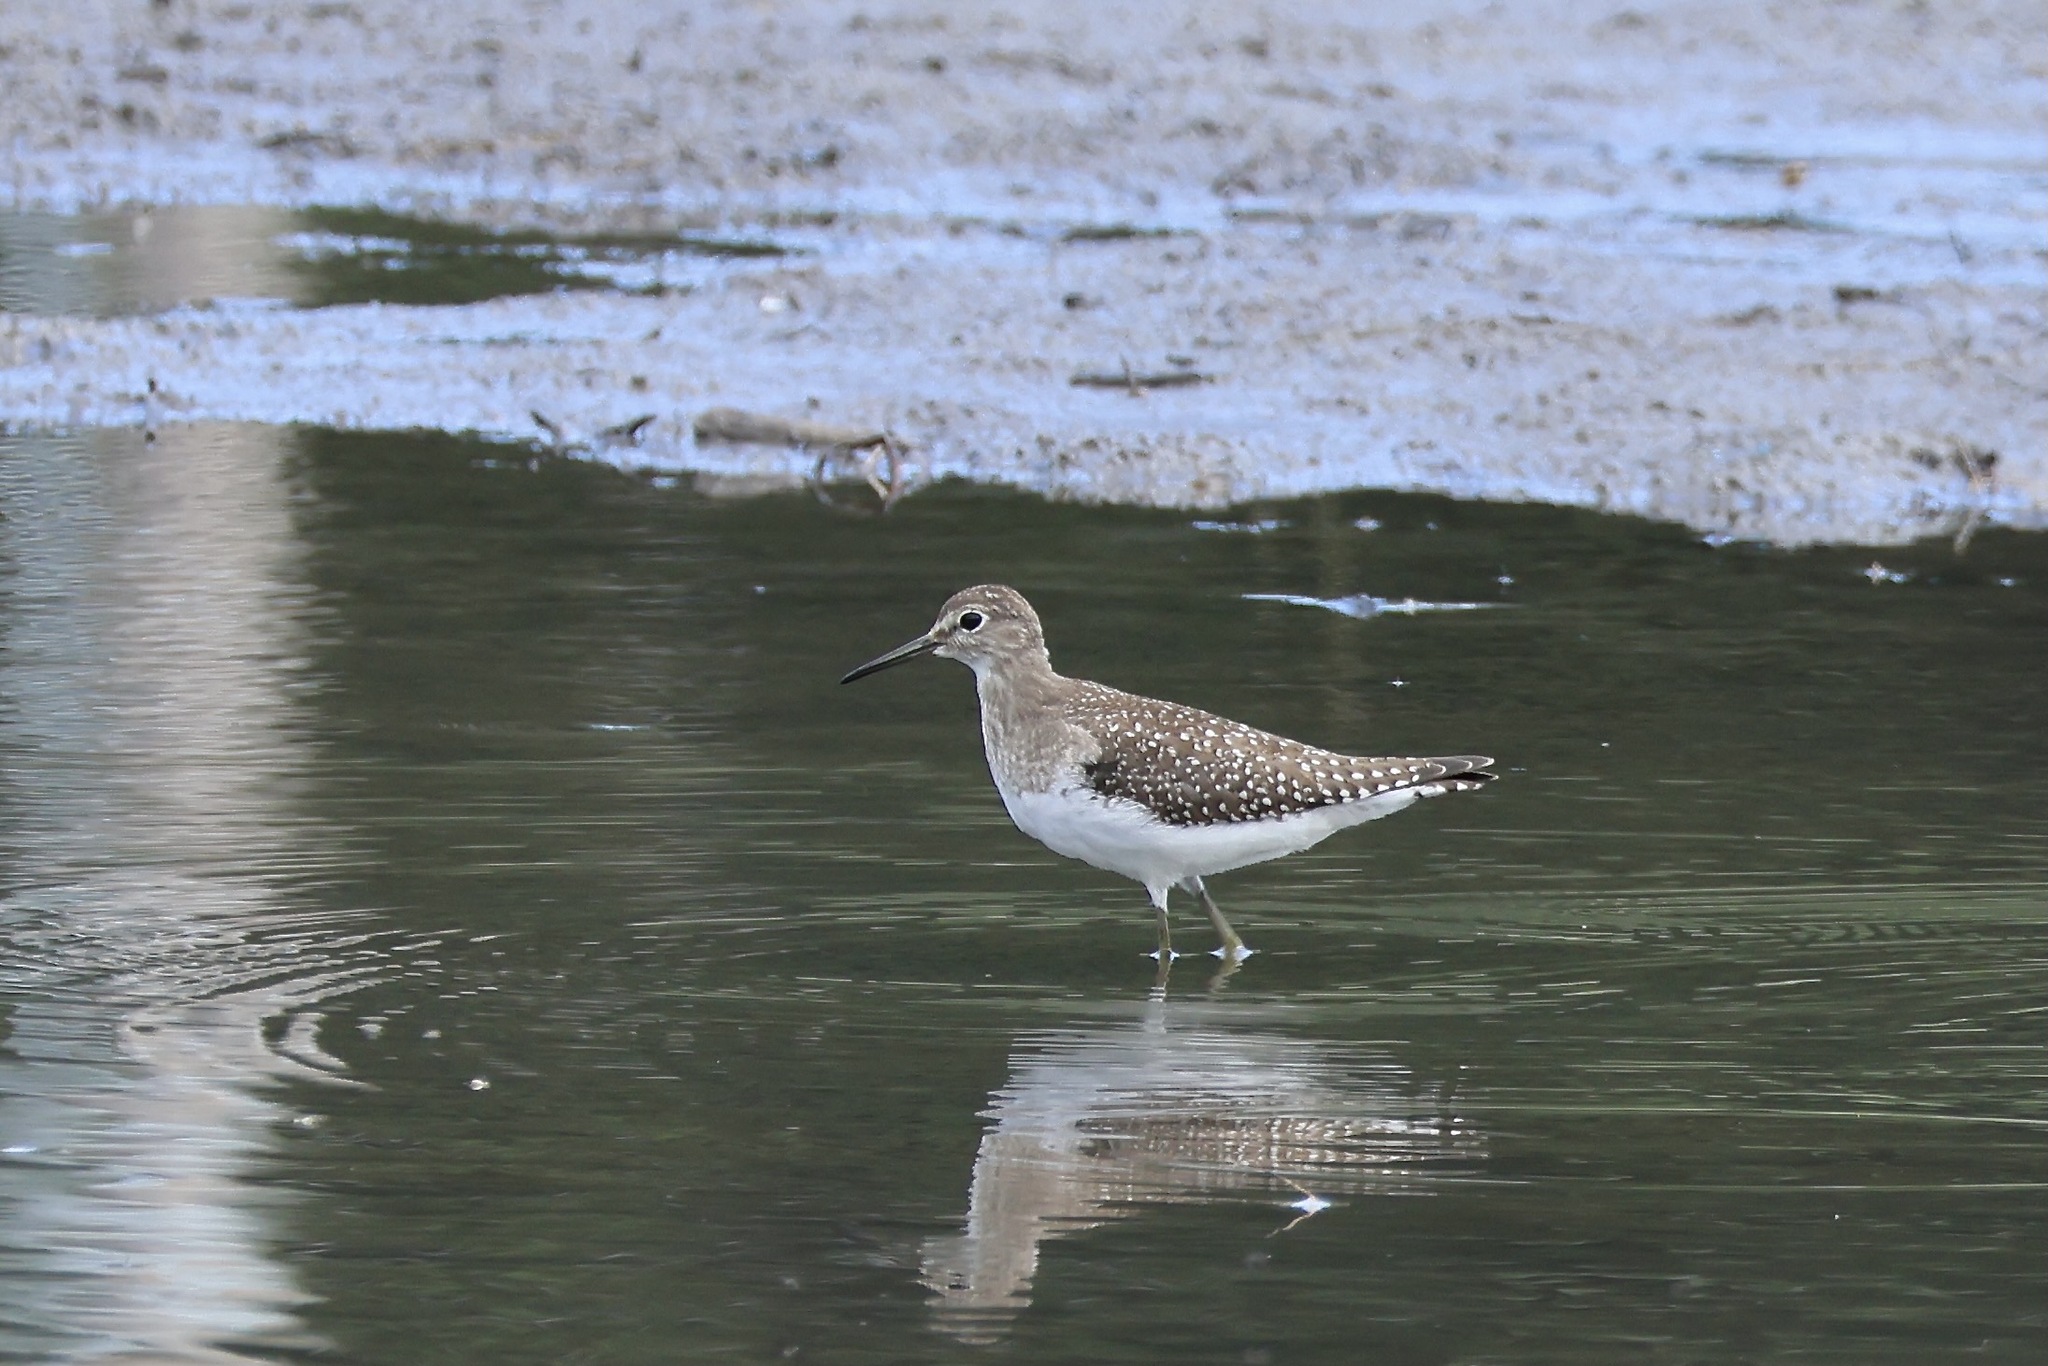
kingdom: Animalia
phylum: Chordata
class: Aves
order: Charadriiformes
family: Scolopacidae
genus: Tringa
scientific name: Tringa solitaria
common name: Solitary sandpiper
